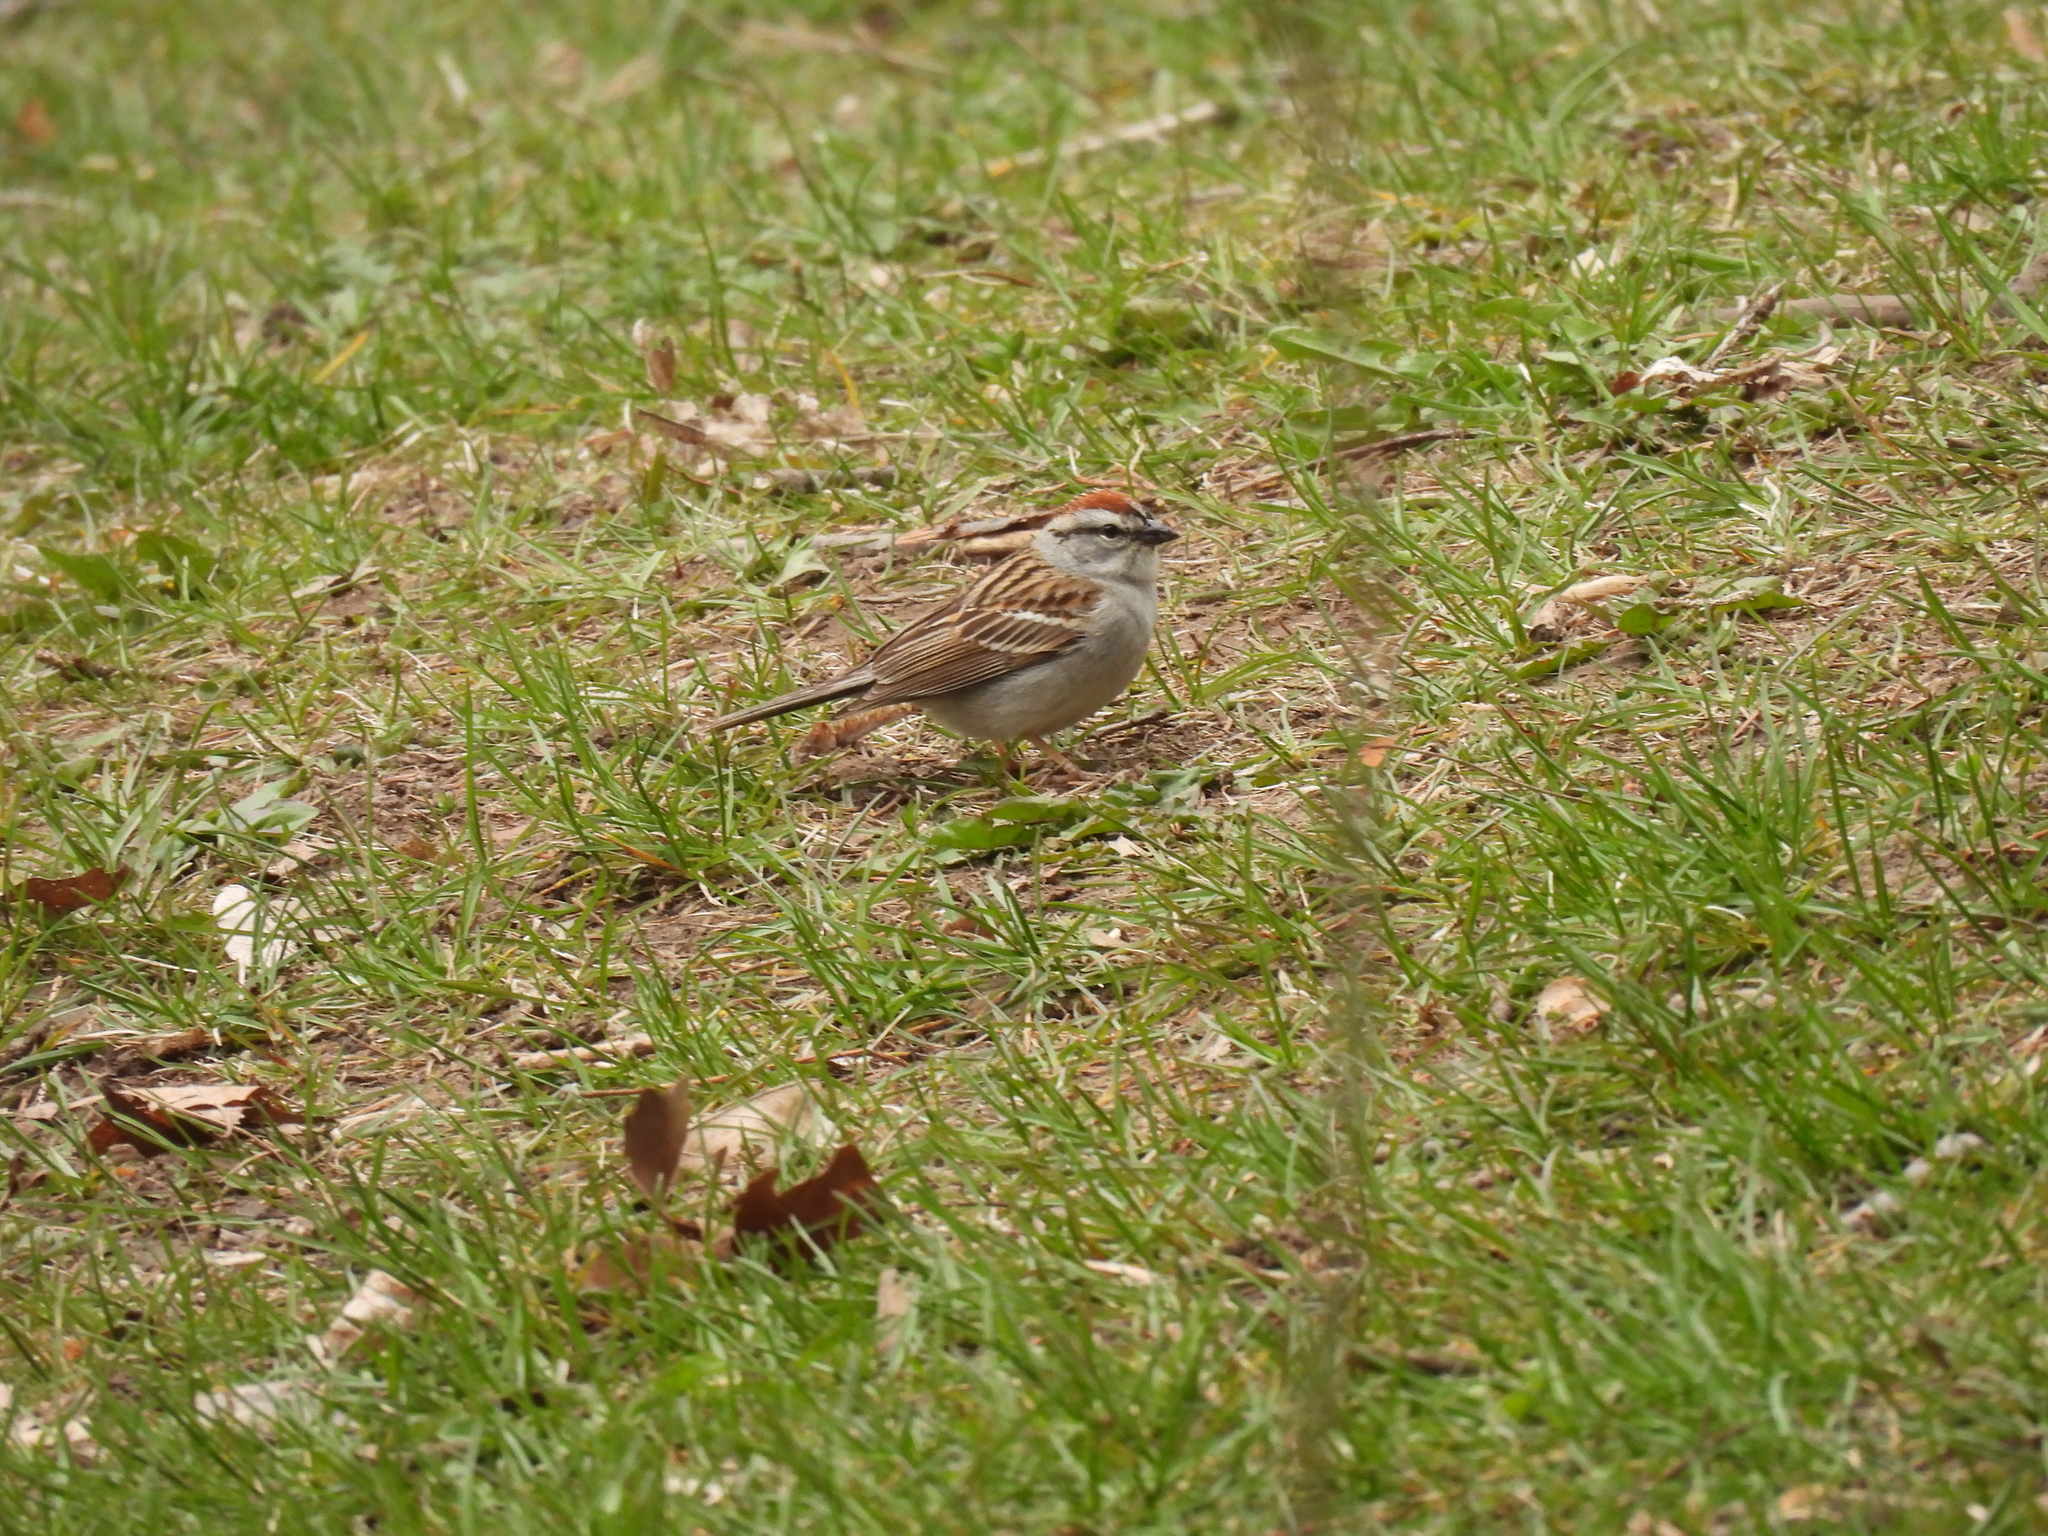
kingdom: Animalia
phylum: Chordata
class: Aves
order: Passeriformes
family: Passerellidae
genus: Spizella
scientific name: Spizella passerina
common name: Chipping sparrow
